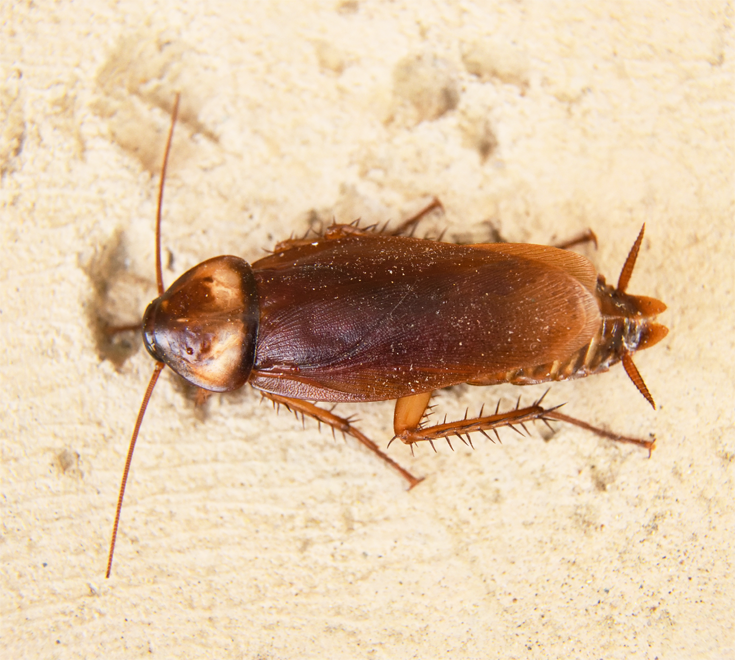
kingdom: Animalia
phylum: Arthropoda
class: Insecta
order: Blattodea
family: Blattidae
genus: Periplaneta
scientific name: Periplaneta americana
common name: American cockroach
